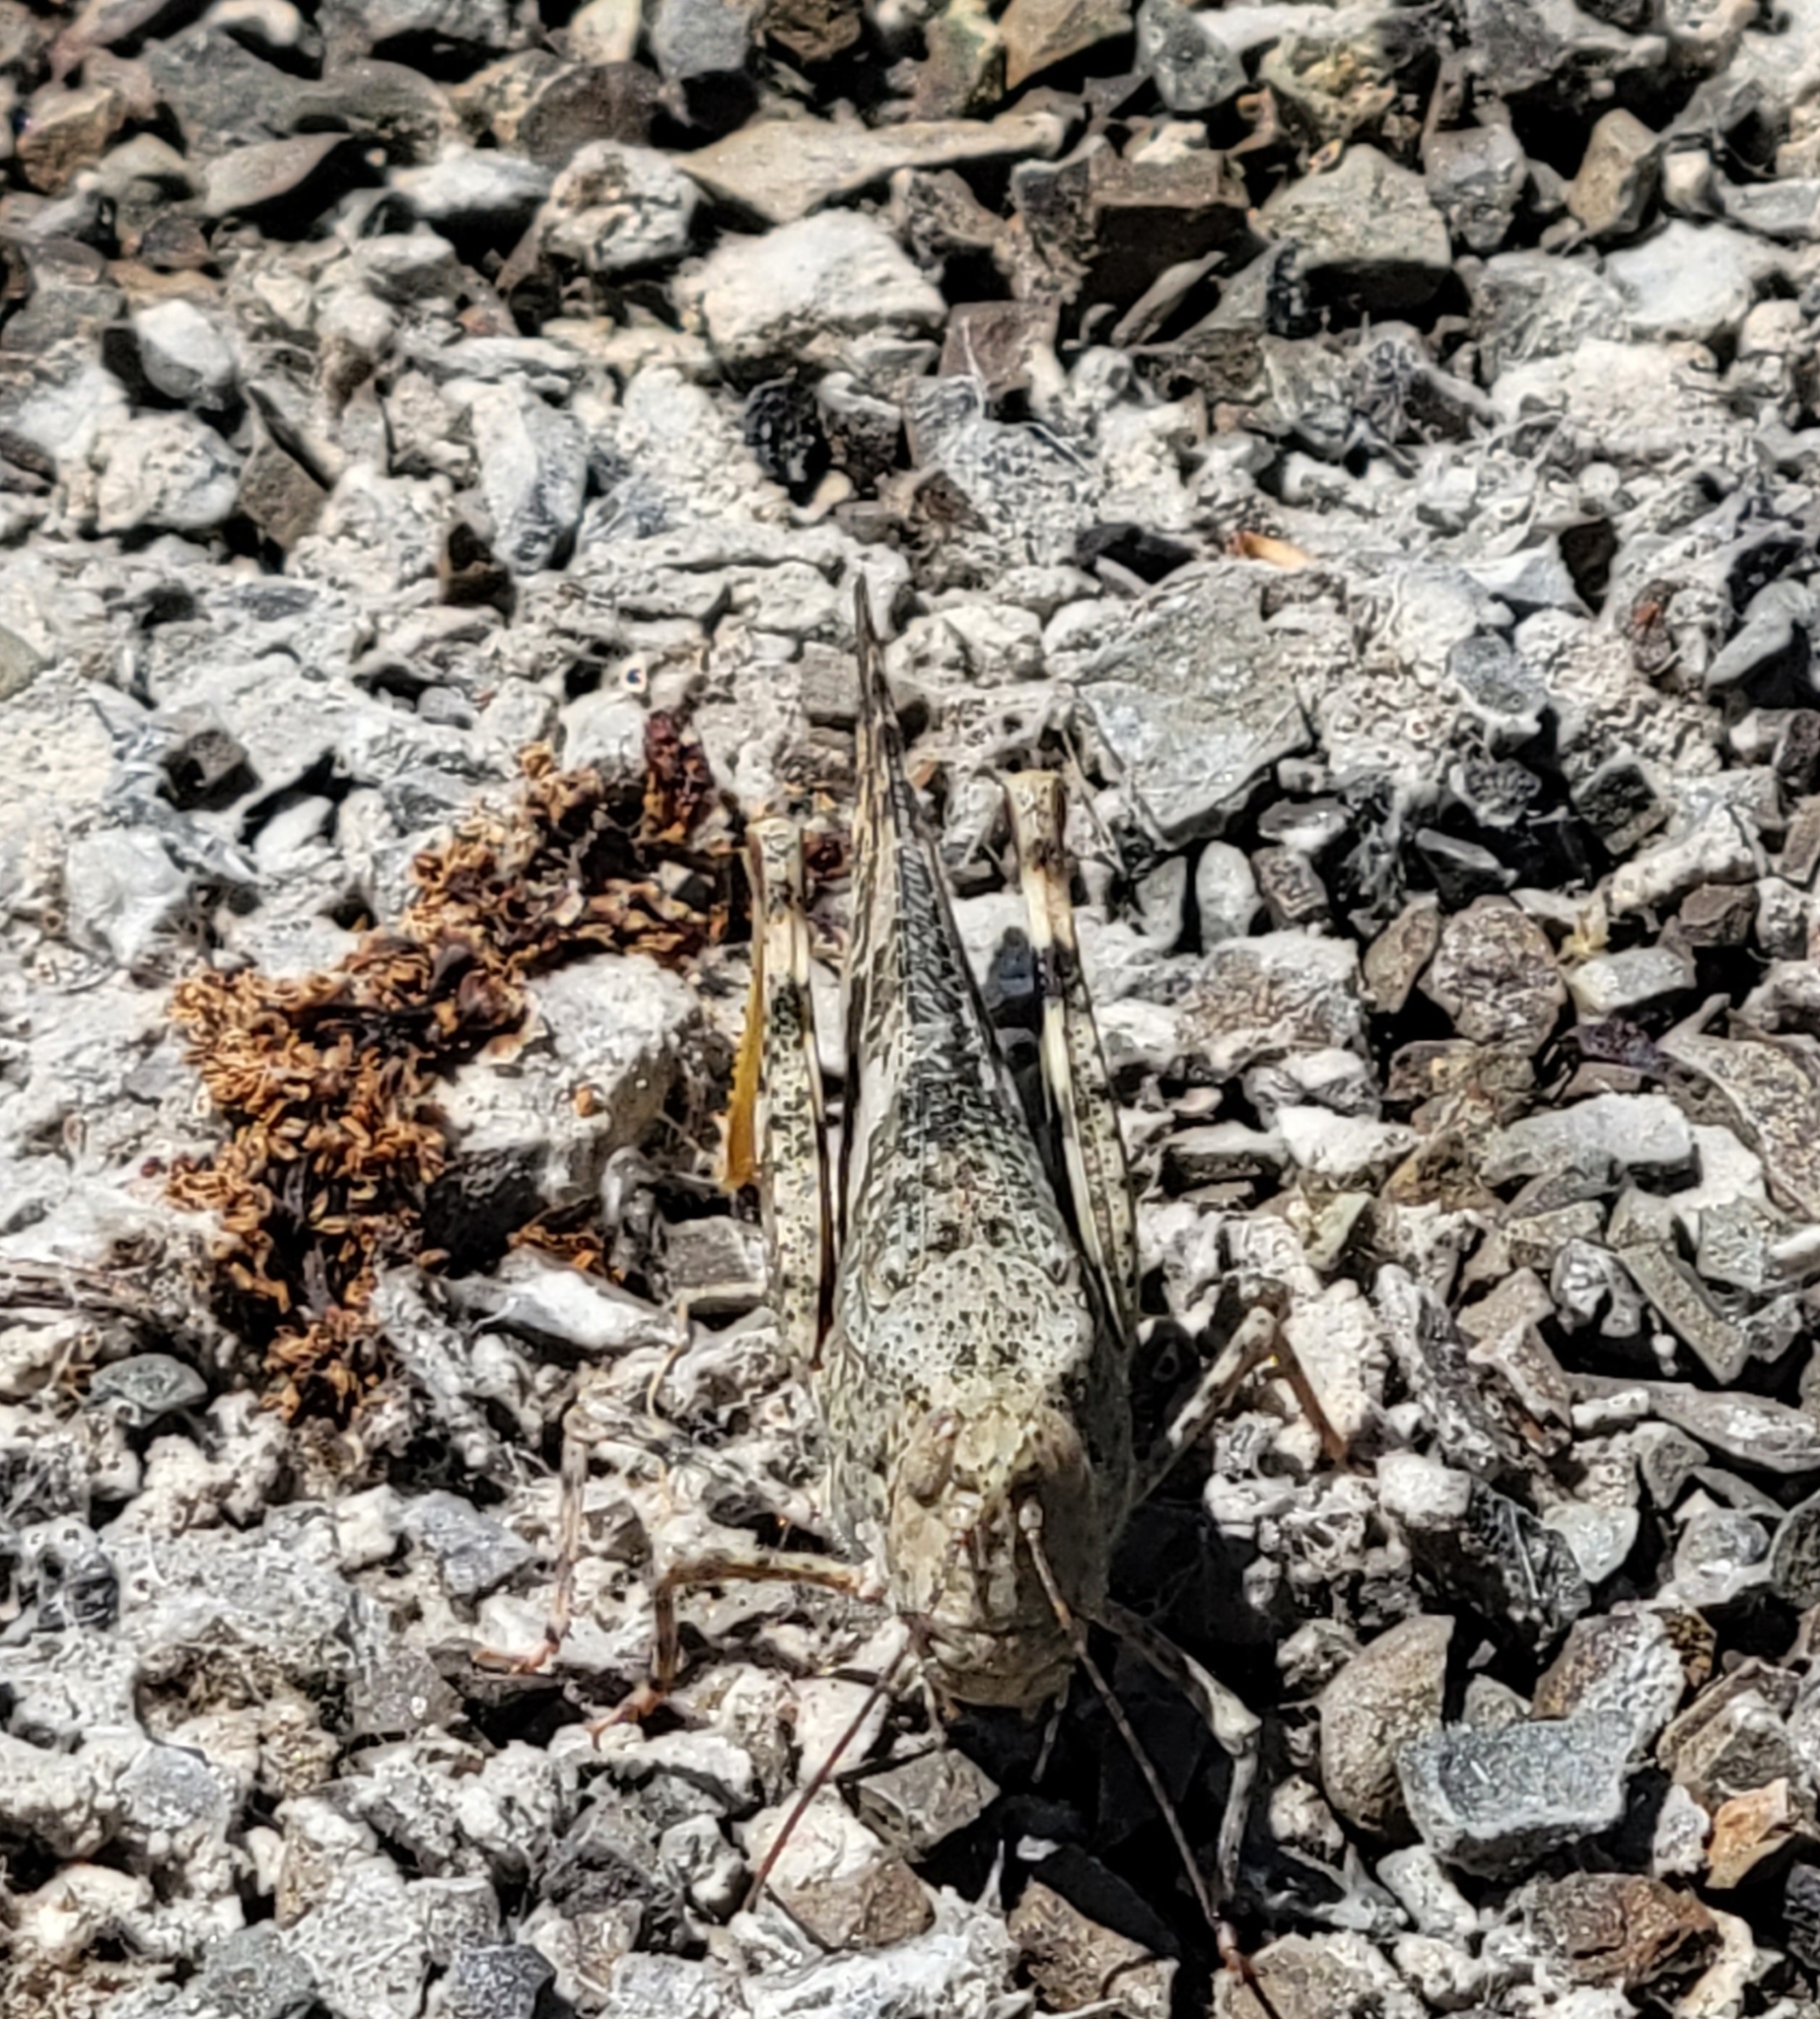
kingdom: Animalia
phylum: Arthropoda
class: Insecta
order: Orthoptera
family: Acrididae
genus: Trimerotropis
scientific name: Trimerotropis pallidipennis
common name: Pallid-winged grasshopper
